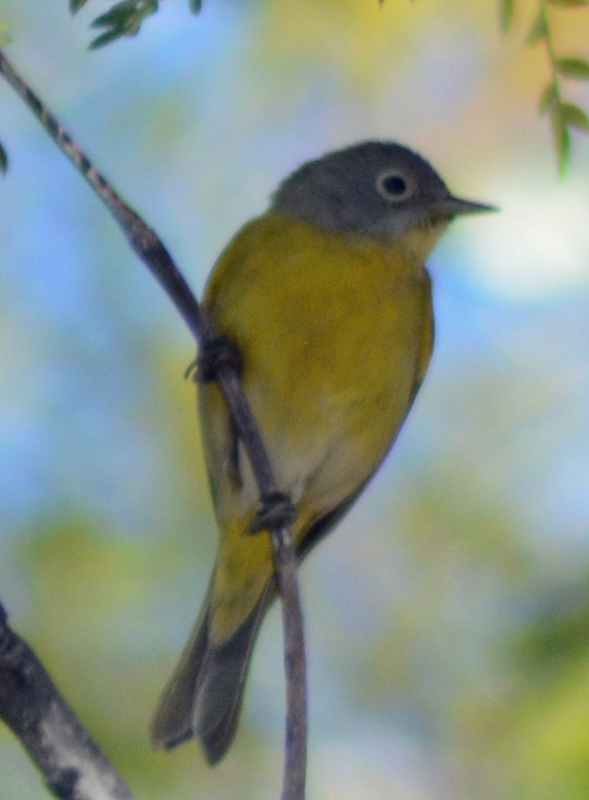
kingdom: Animalia
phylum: Chordata
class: Aves
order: Passeriformes
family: Parulidae
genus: Leiothlypis
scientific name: Leiothlypis ruficapilla
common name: Nashville warbler
